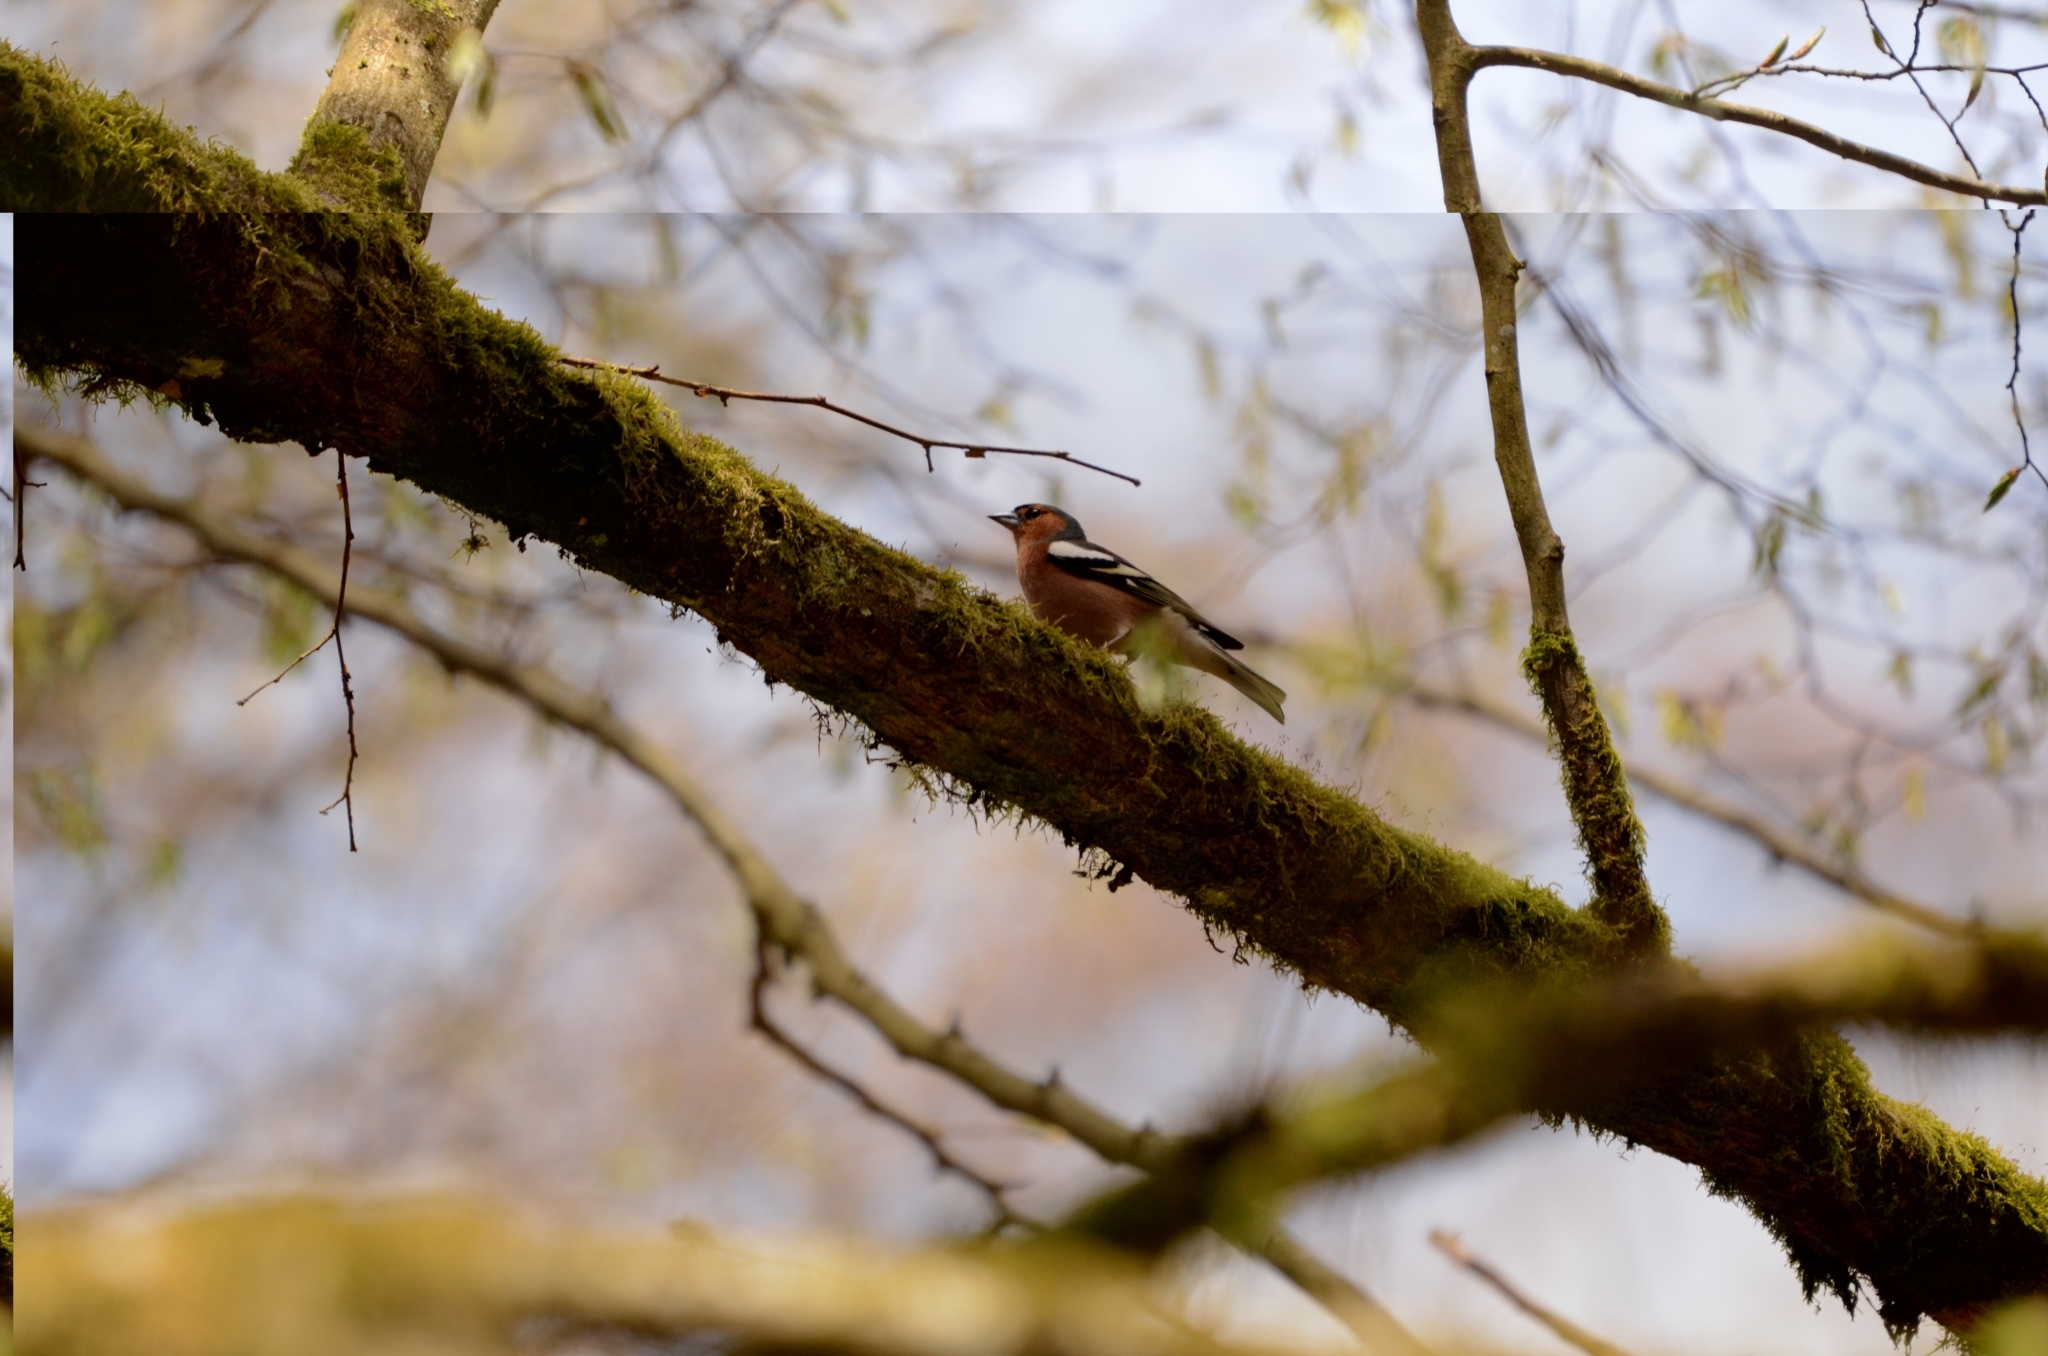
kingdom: Animalia
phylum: Chordata
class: Aves
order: Passeriformes
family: Fringillidae
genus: Fringilla
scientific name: Fringilla coelebs
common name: Common chaffinch
